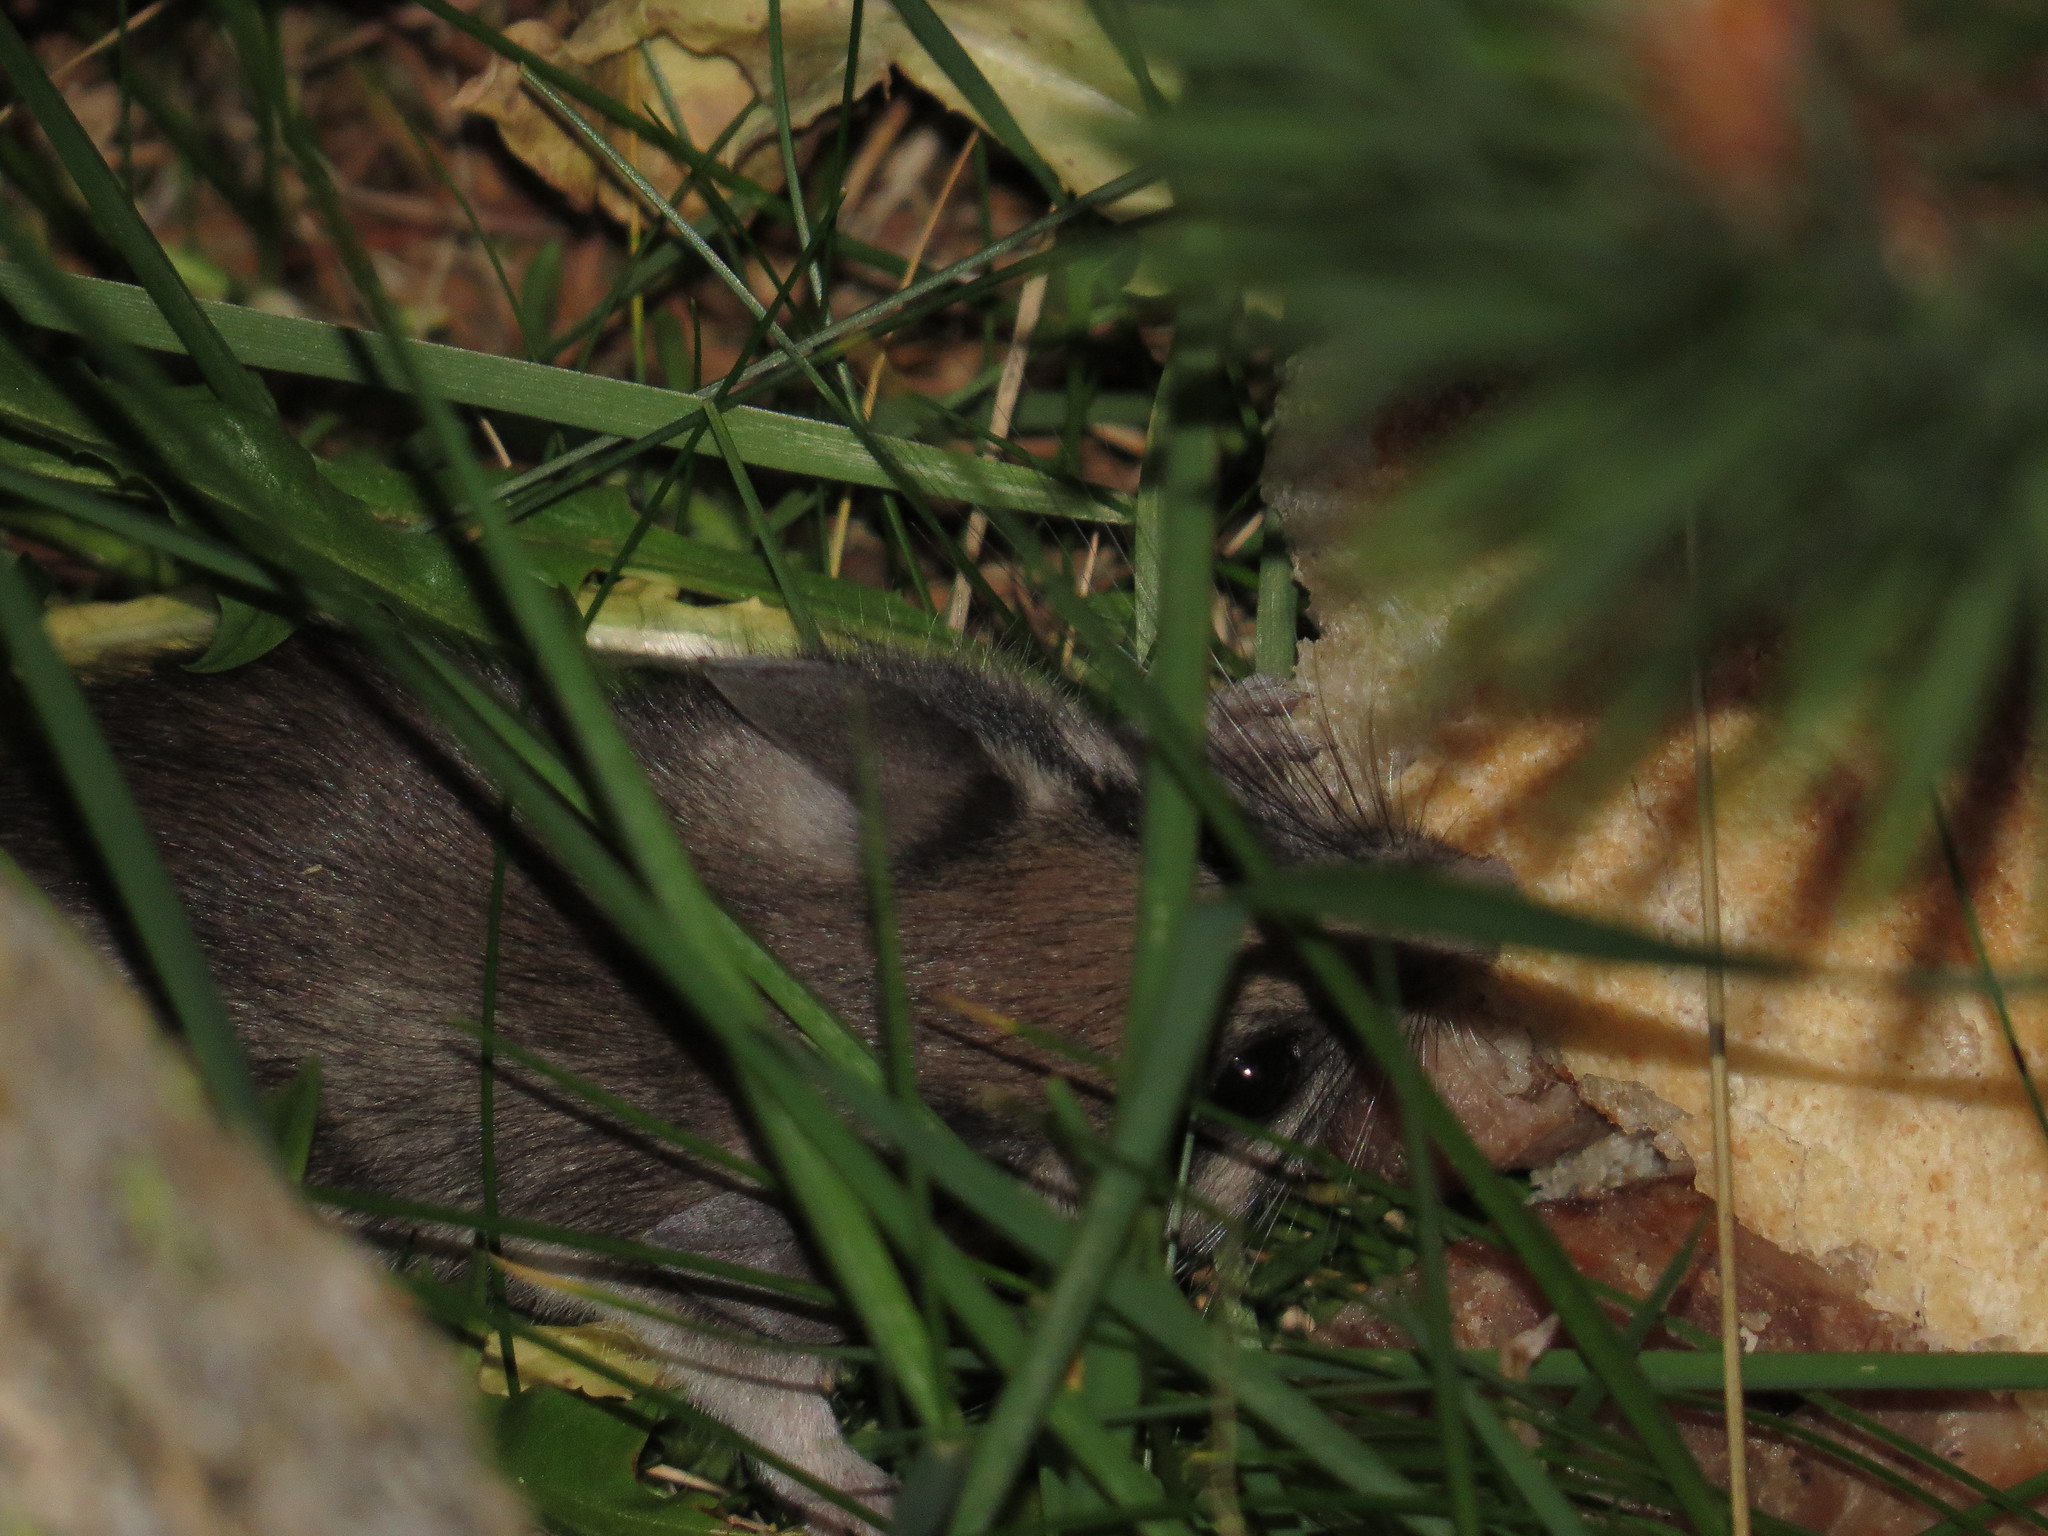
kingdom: Animalia
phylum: Chordata
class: Mammalia
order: Rodentia
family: Gliridae
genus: Eliomys
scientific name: Eliomys quercinus
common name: Garden dormouse
